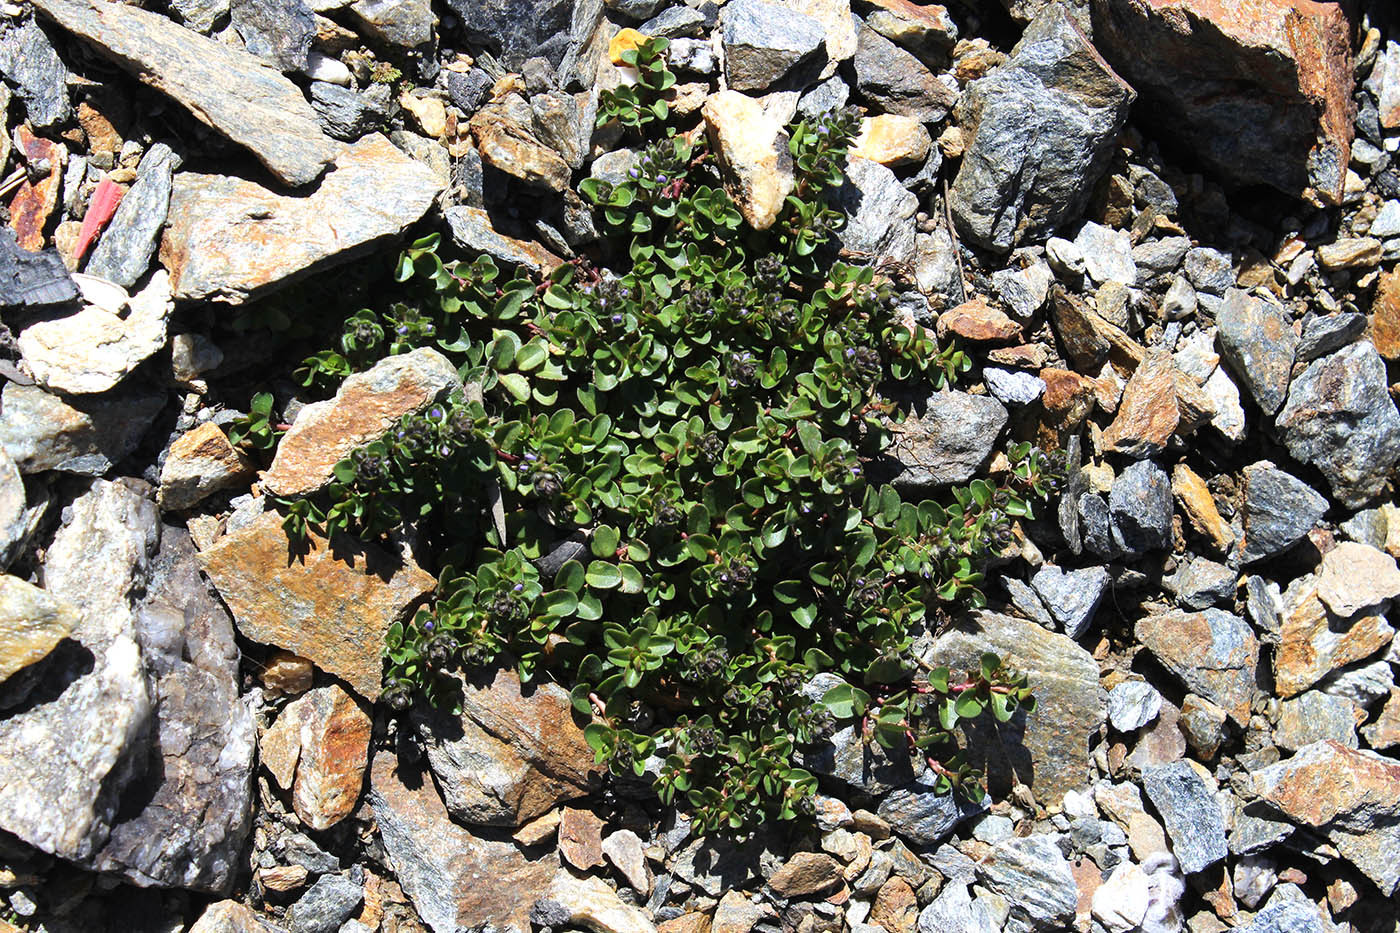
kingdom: Plantae
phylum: Tracheophyta
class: Magnoliopsida
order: Lamiales
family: Plantaginaceae
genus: Veronica
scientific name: Veronica telephiifolia
